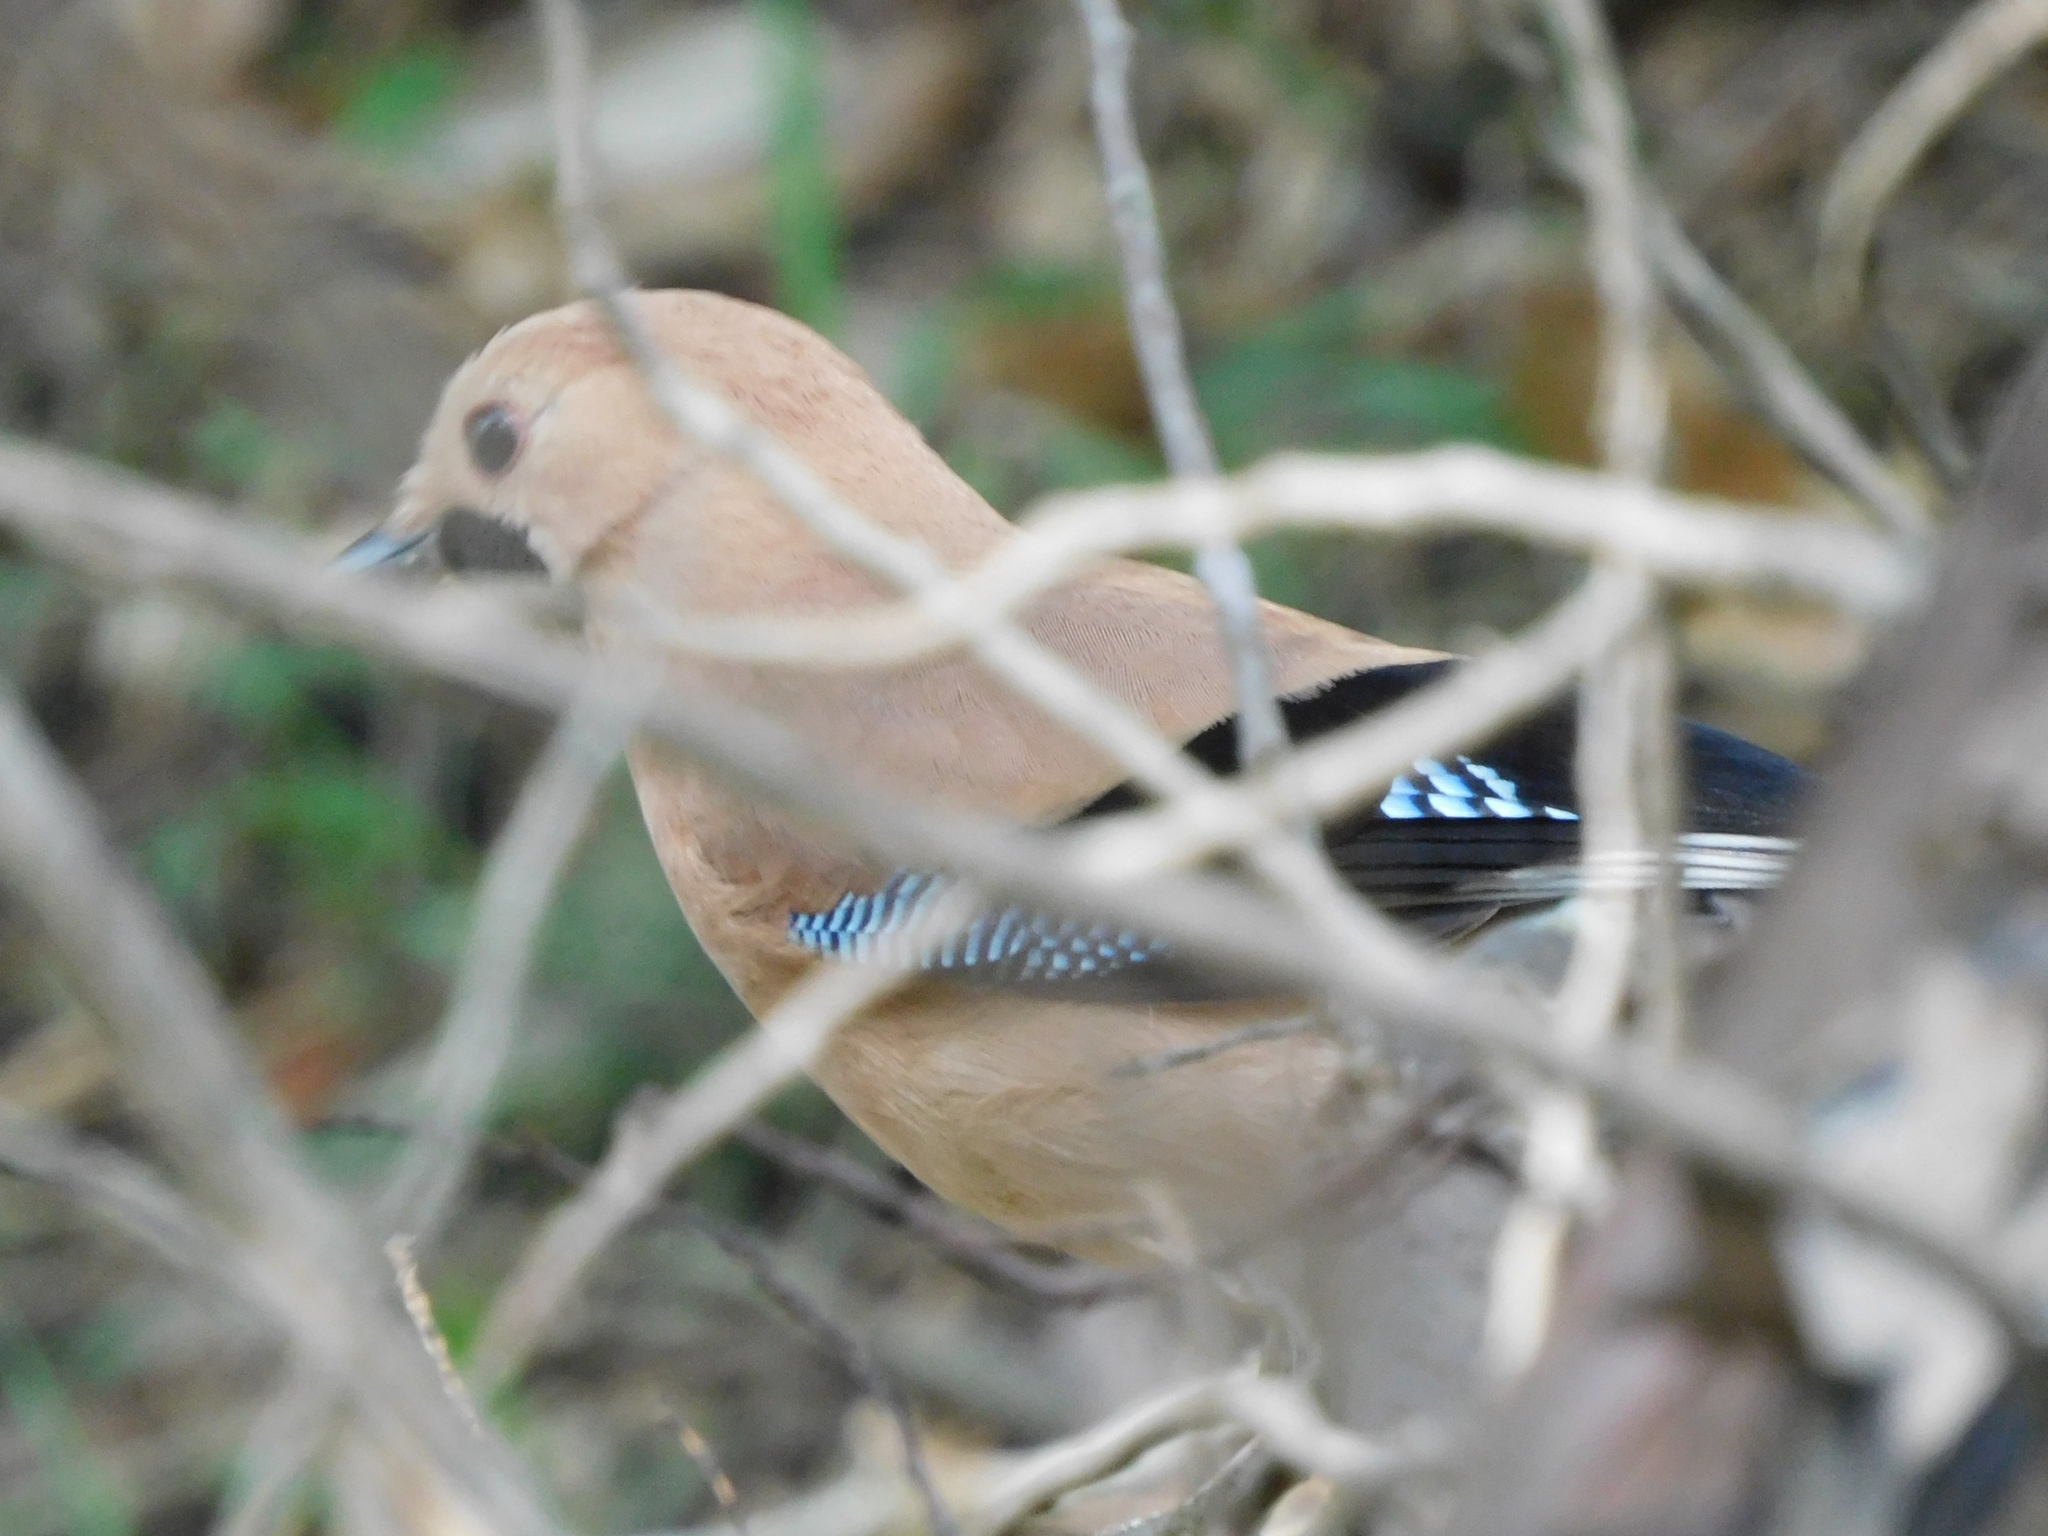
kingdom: Animalia
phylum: Chordata
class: Aves
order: Passeriformes
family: Corvidae
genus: Garrulus
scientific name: Garrulus glandarius
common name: Eurasian jay
